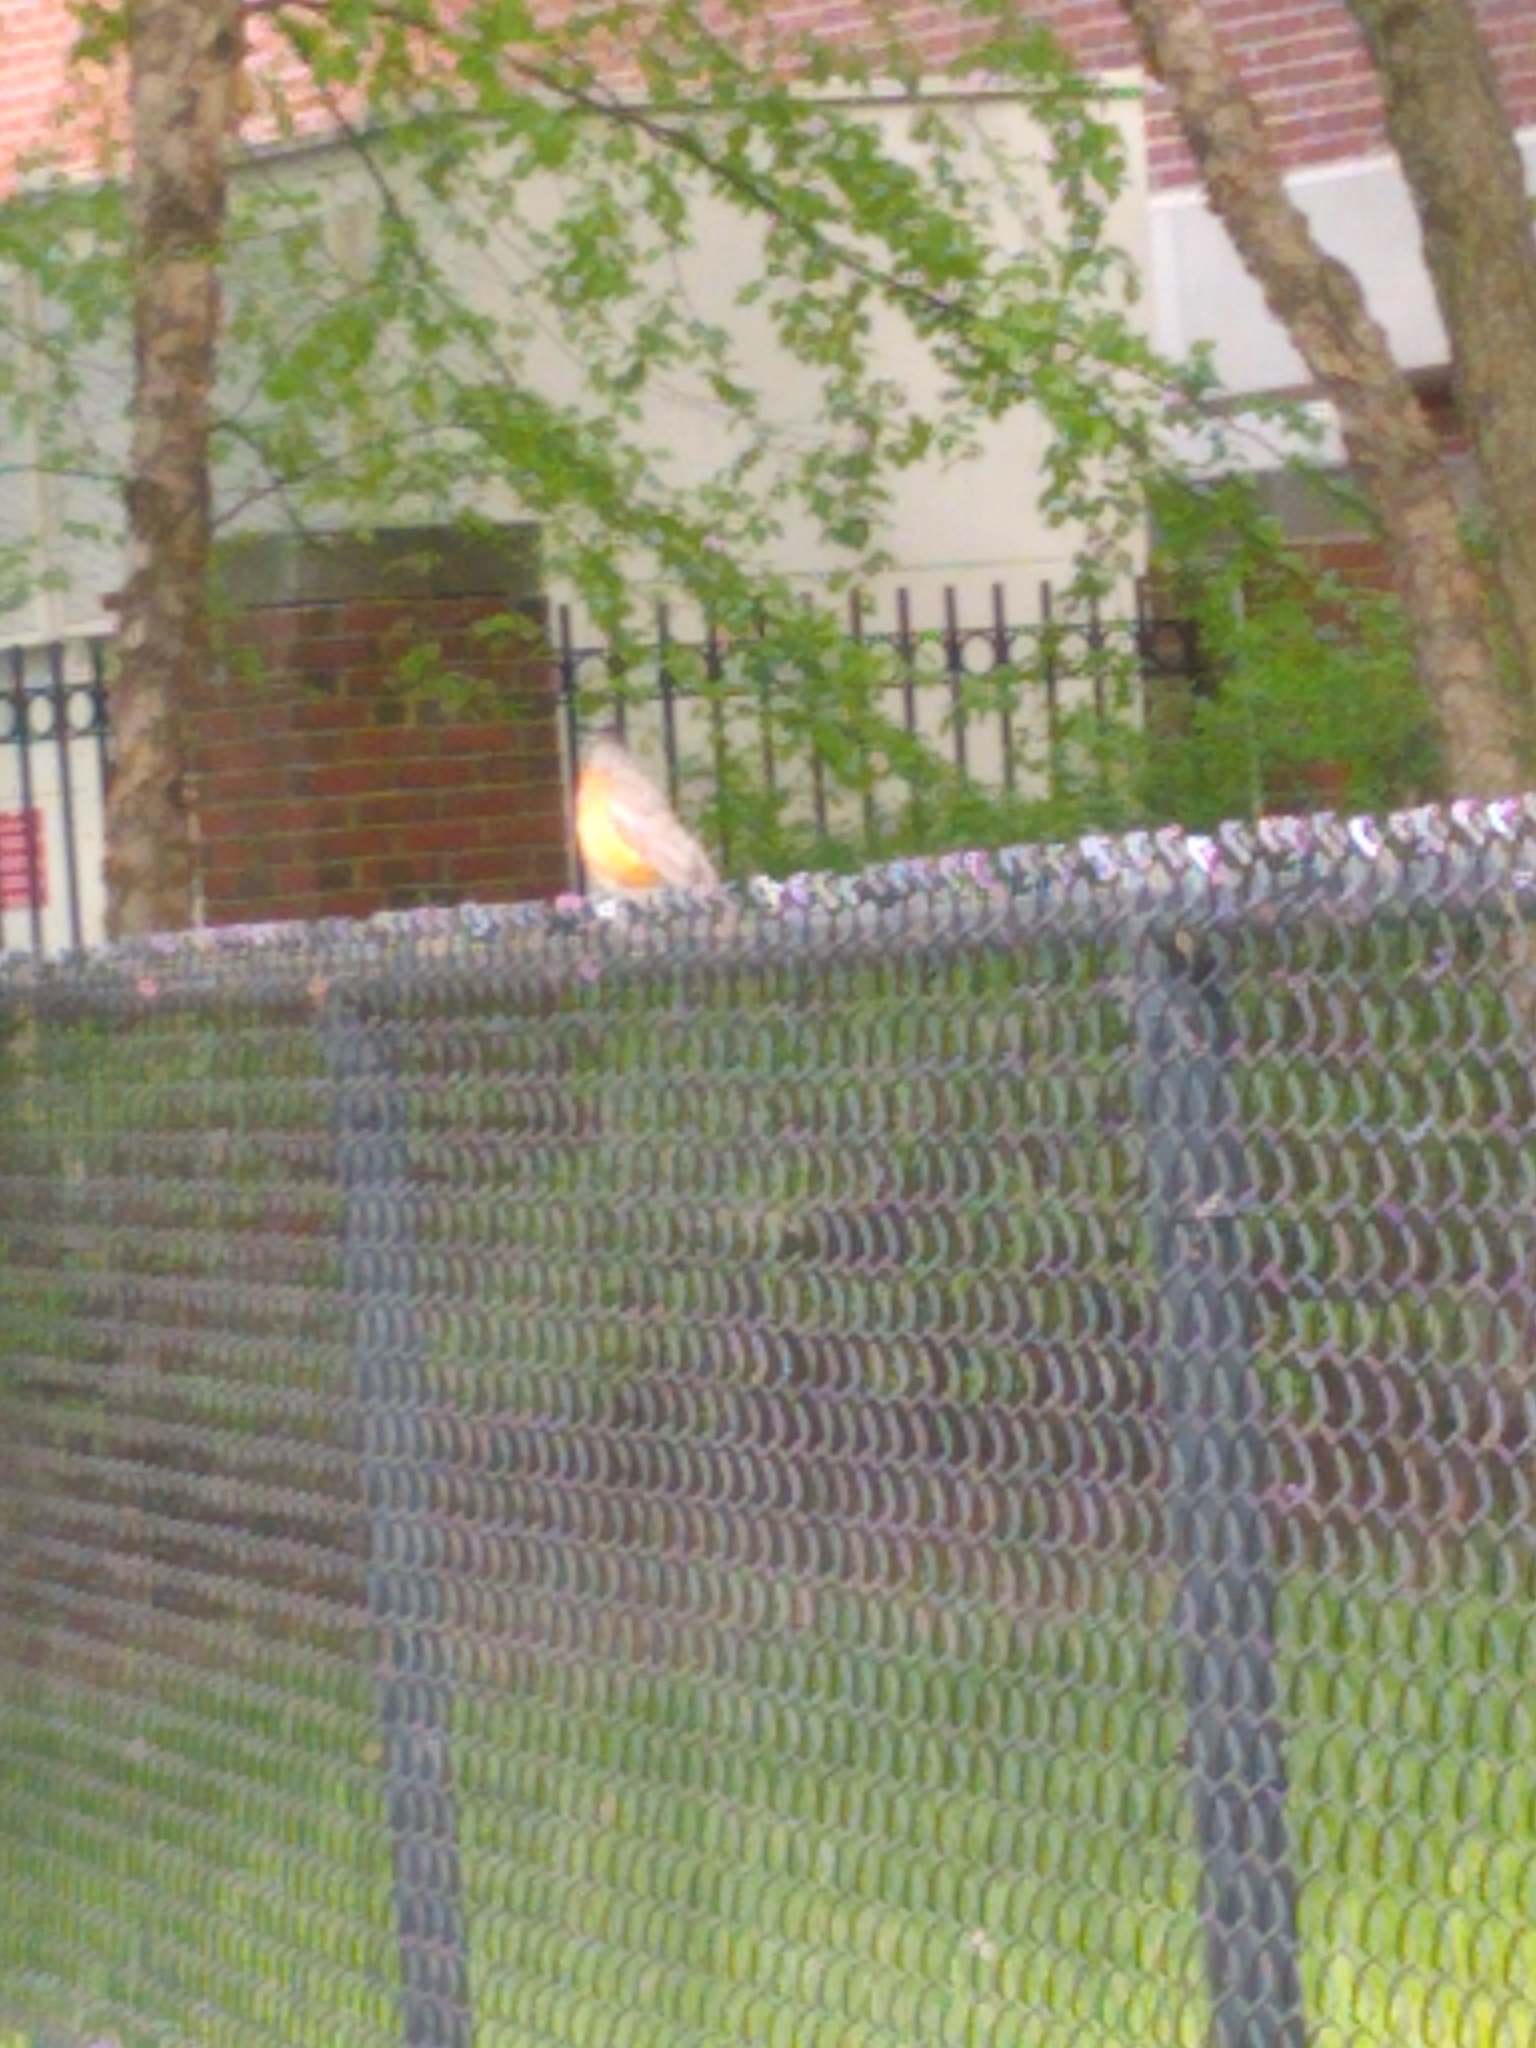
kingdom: Animalia
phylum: Chordata
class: Aves
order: Passeriformes
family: Turdidae
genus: Turdus
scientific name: Turdus migratorius
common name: American robin
